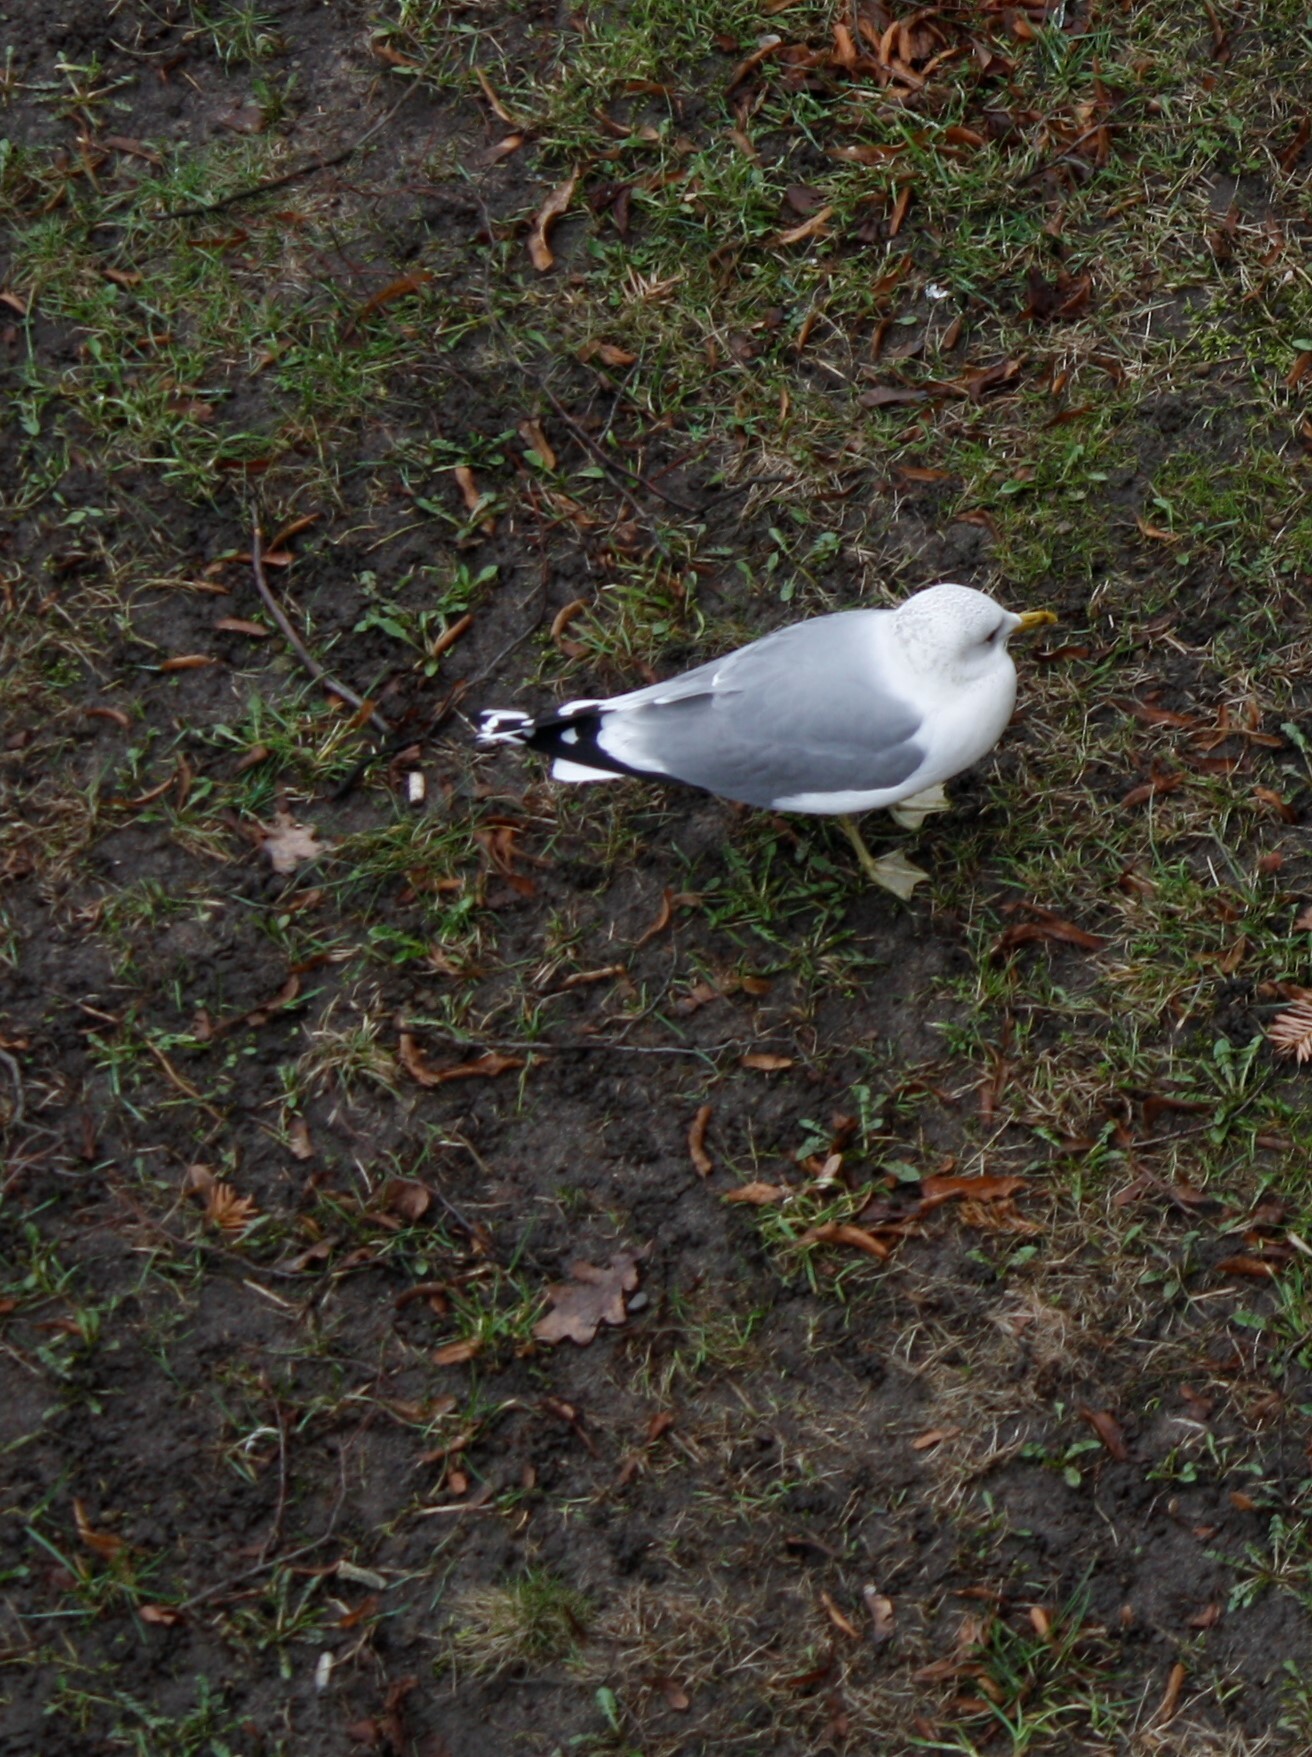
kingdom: Animalia
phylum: Chordata
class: Aves
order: Charadriiformes
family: Laridae
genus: Larus
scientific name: Larus canus
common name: Mew gull
